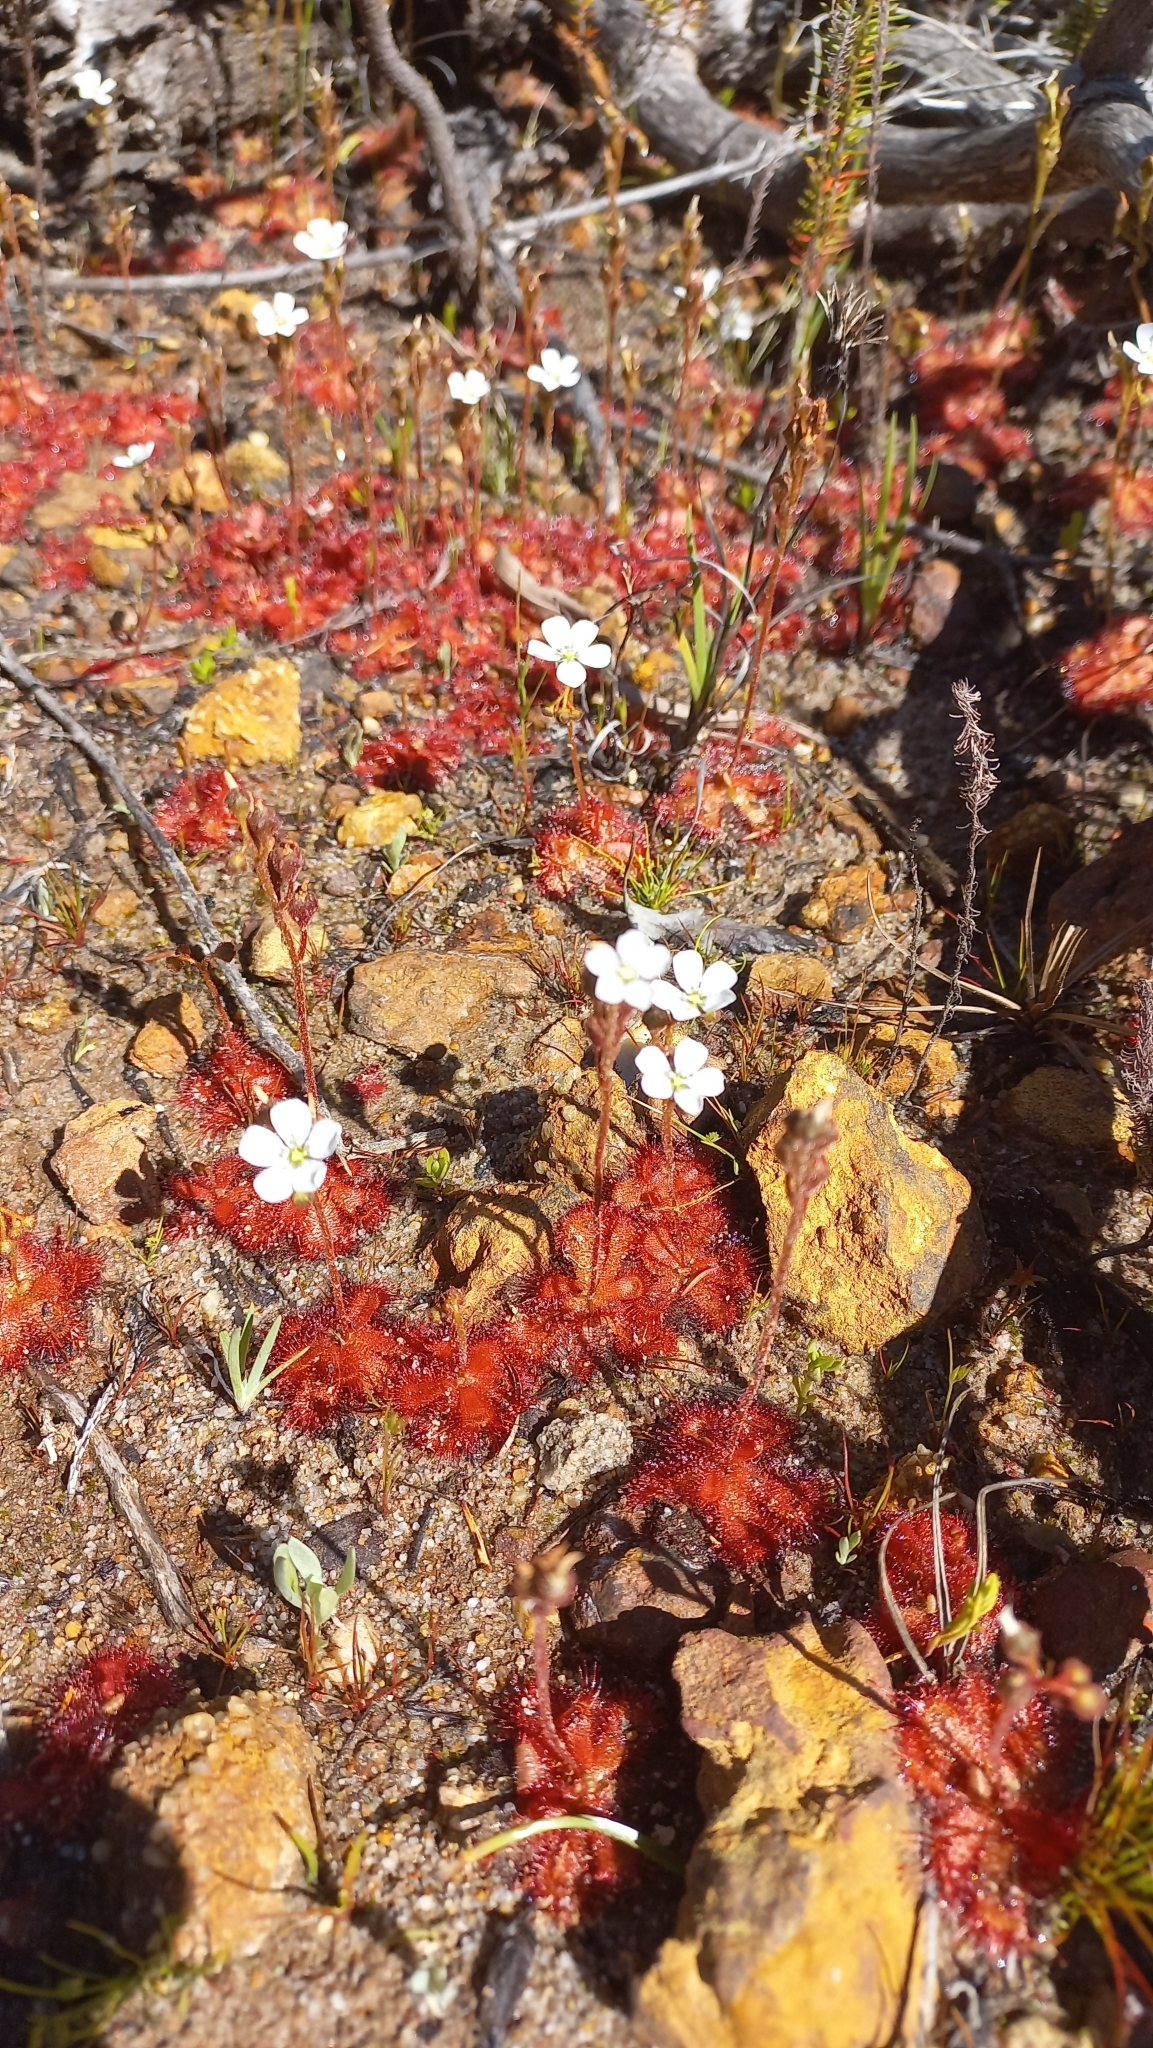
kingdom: Plantae
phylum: Tracheophyta
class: Magnoliopsida
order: Caryophyllales
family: Droseraceae
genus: Drosera
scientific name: Drosera trinervia
